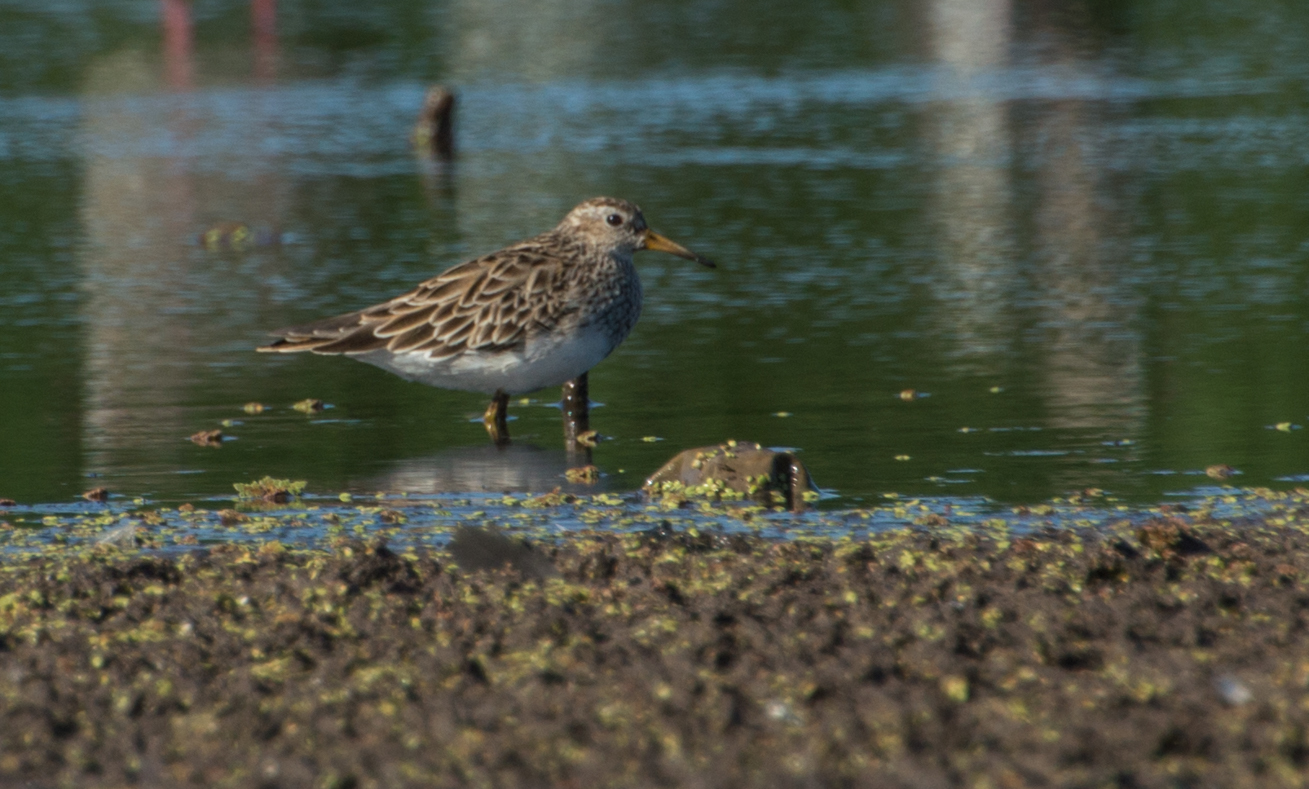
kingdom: Animalia
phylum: Chordata
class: Aves
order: Charadriiformes
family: Scolopacidae
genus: Calidris
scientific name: Calidris melanotos
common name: Pectoral sandpiper
